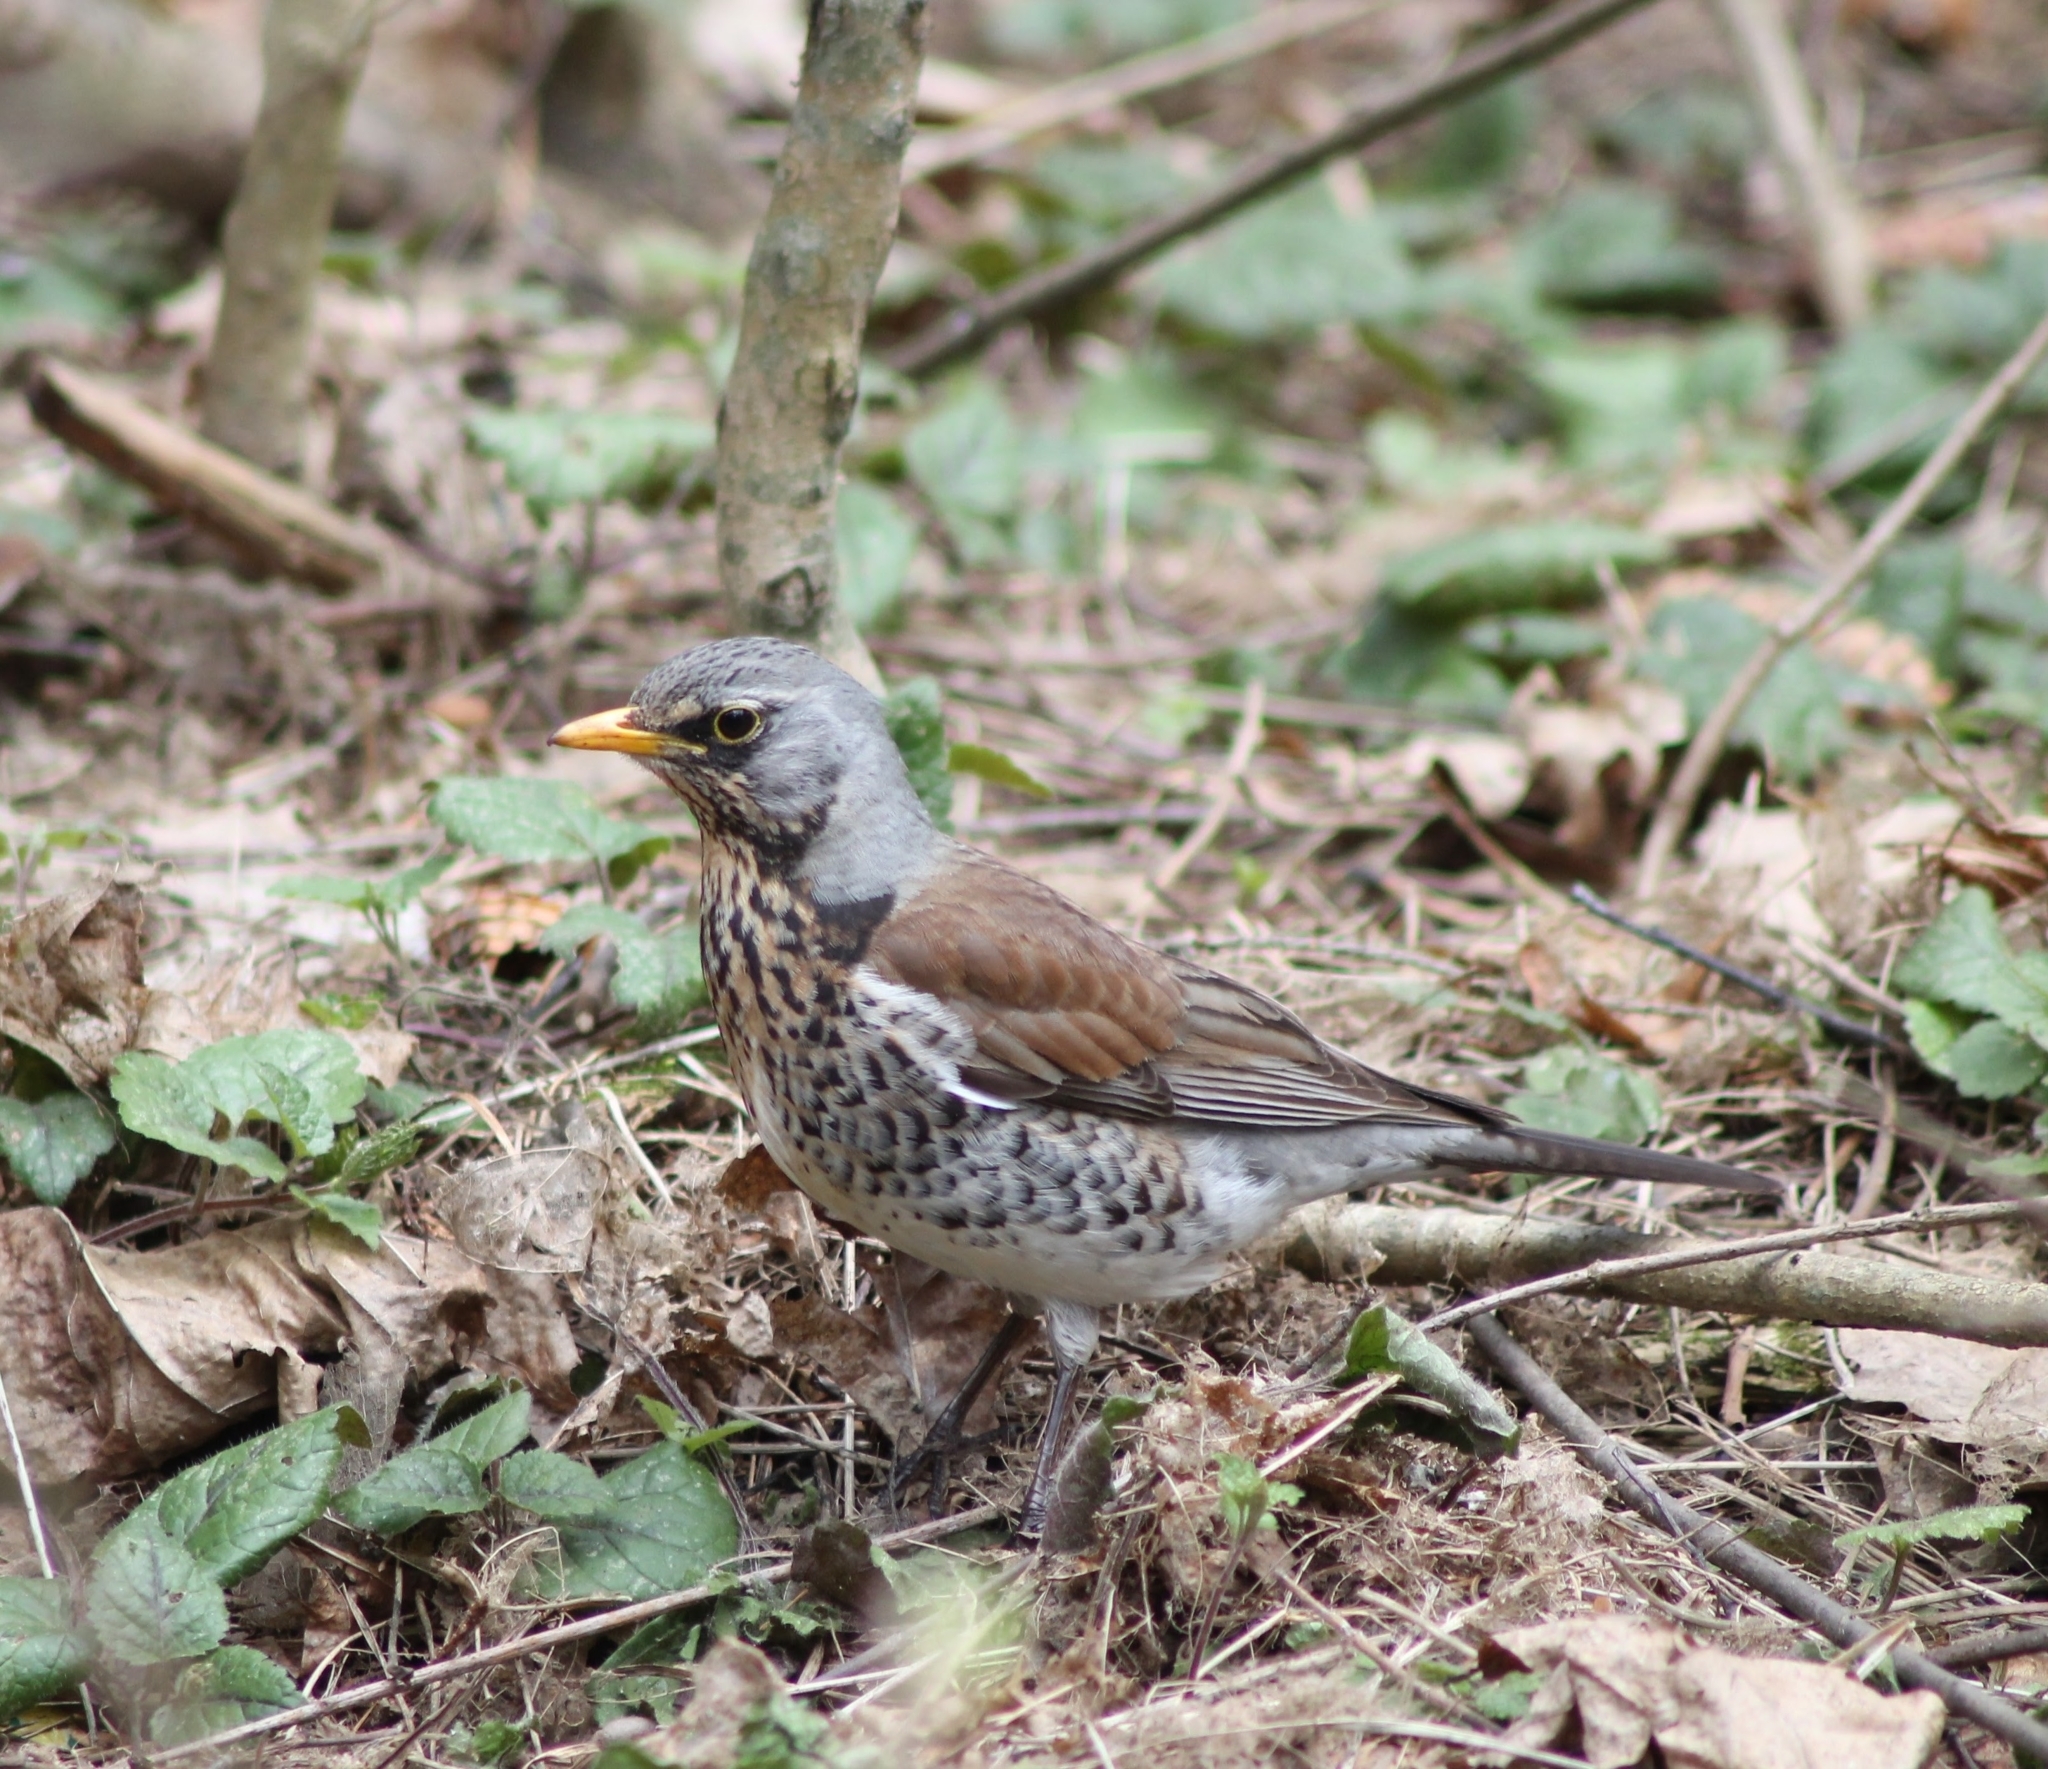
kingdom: Animalia
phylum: Chordata
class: Aves
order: Passeriformes
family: Turdidae
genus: Turdus
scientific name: Turdus pilaris
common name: Fieldfare
